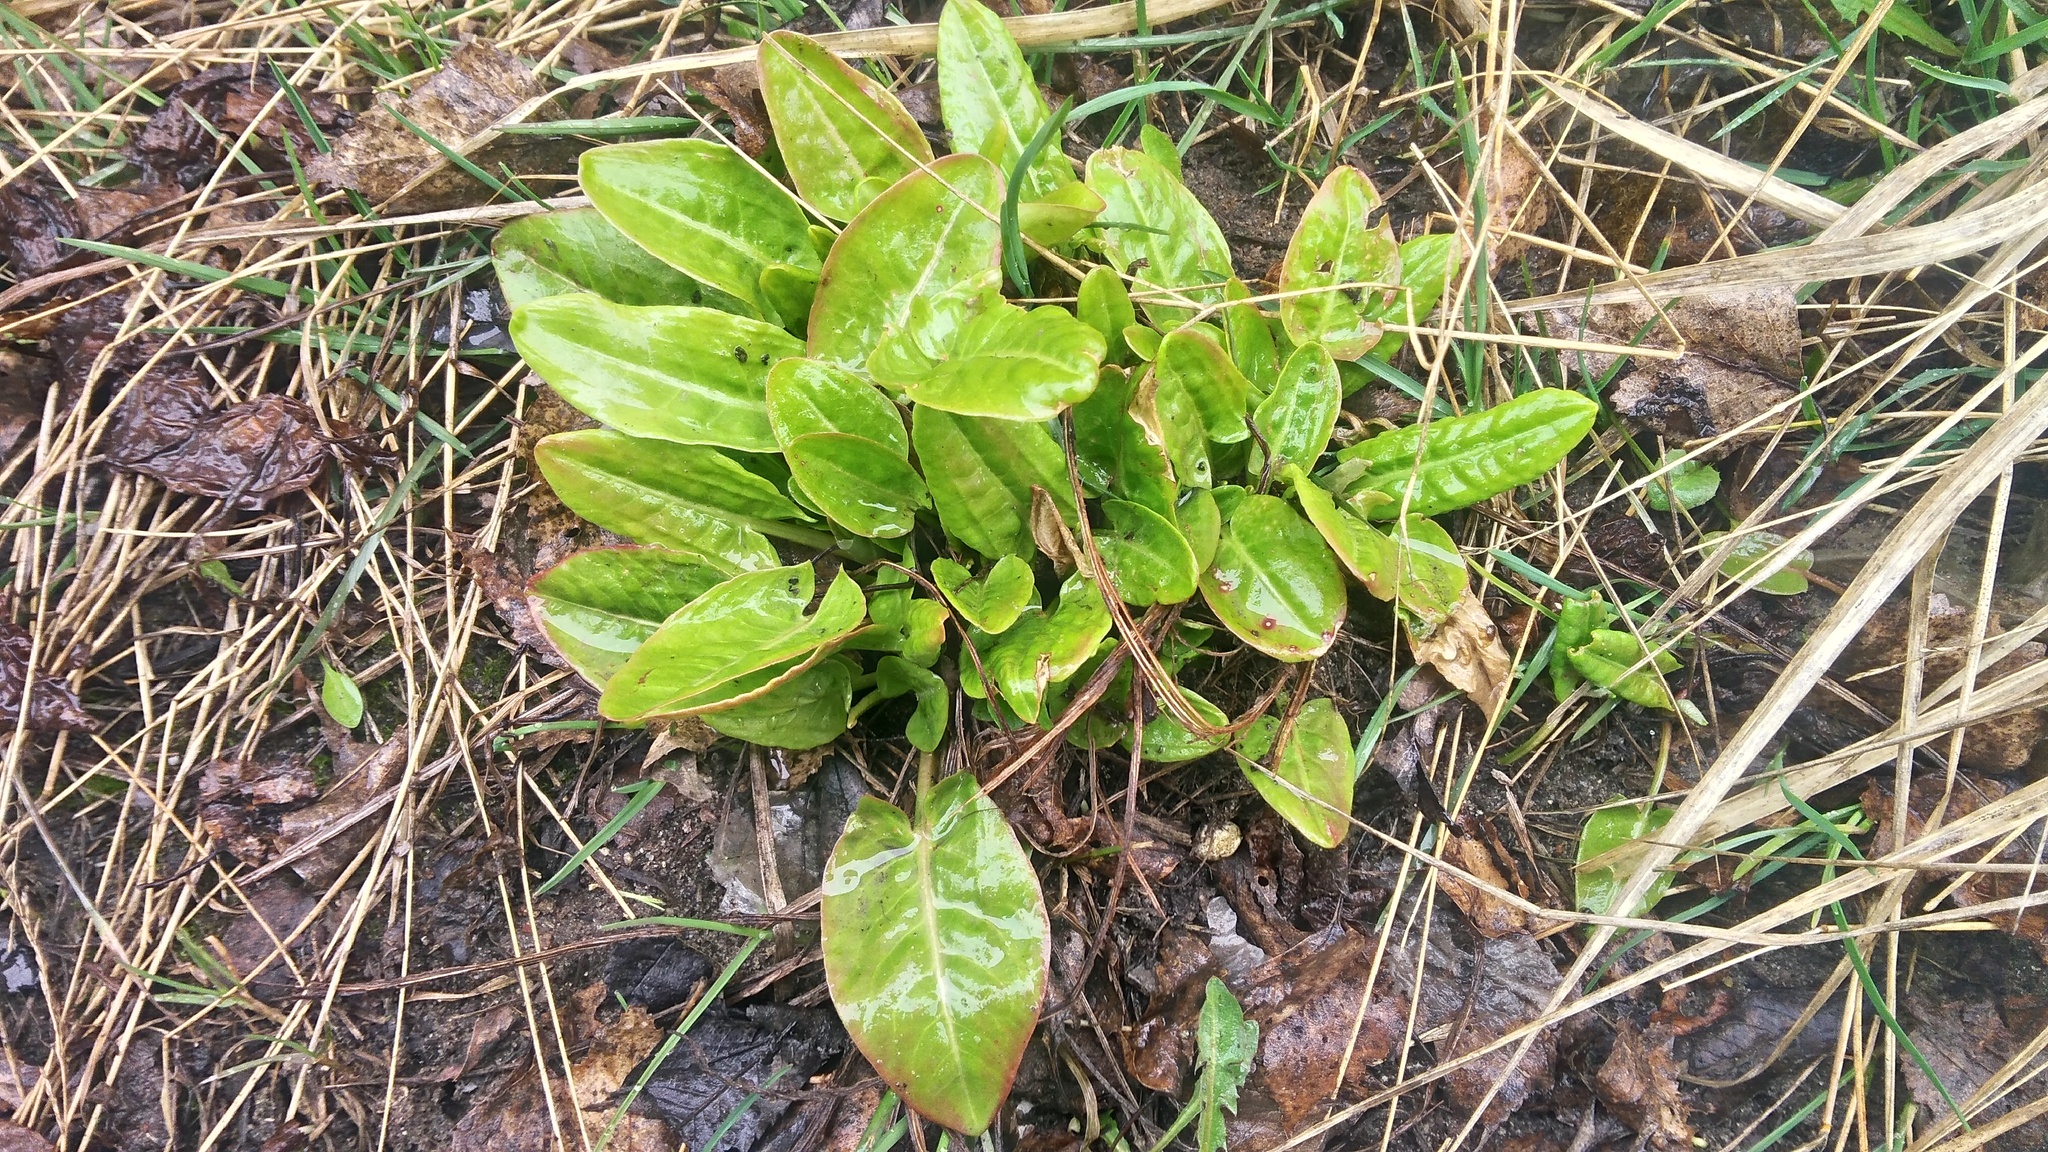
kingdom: Plantae
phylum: Tracheophyta
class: Magnoliopsida
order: Caryophyllales
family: Polygonaceae
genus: Rumex
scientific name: Rumex acetosa
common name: Garden sorrel
